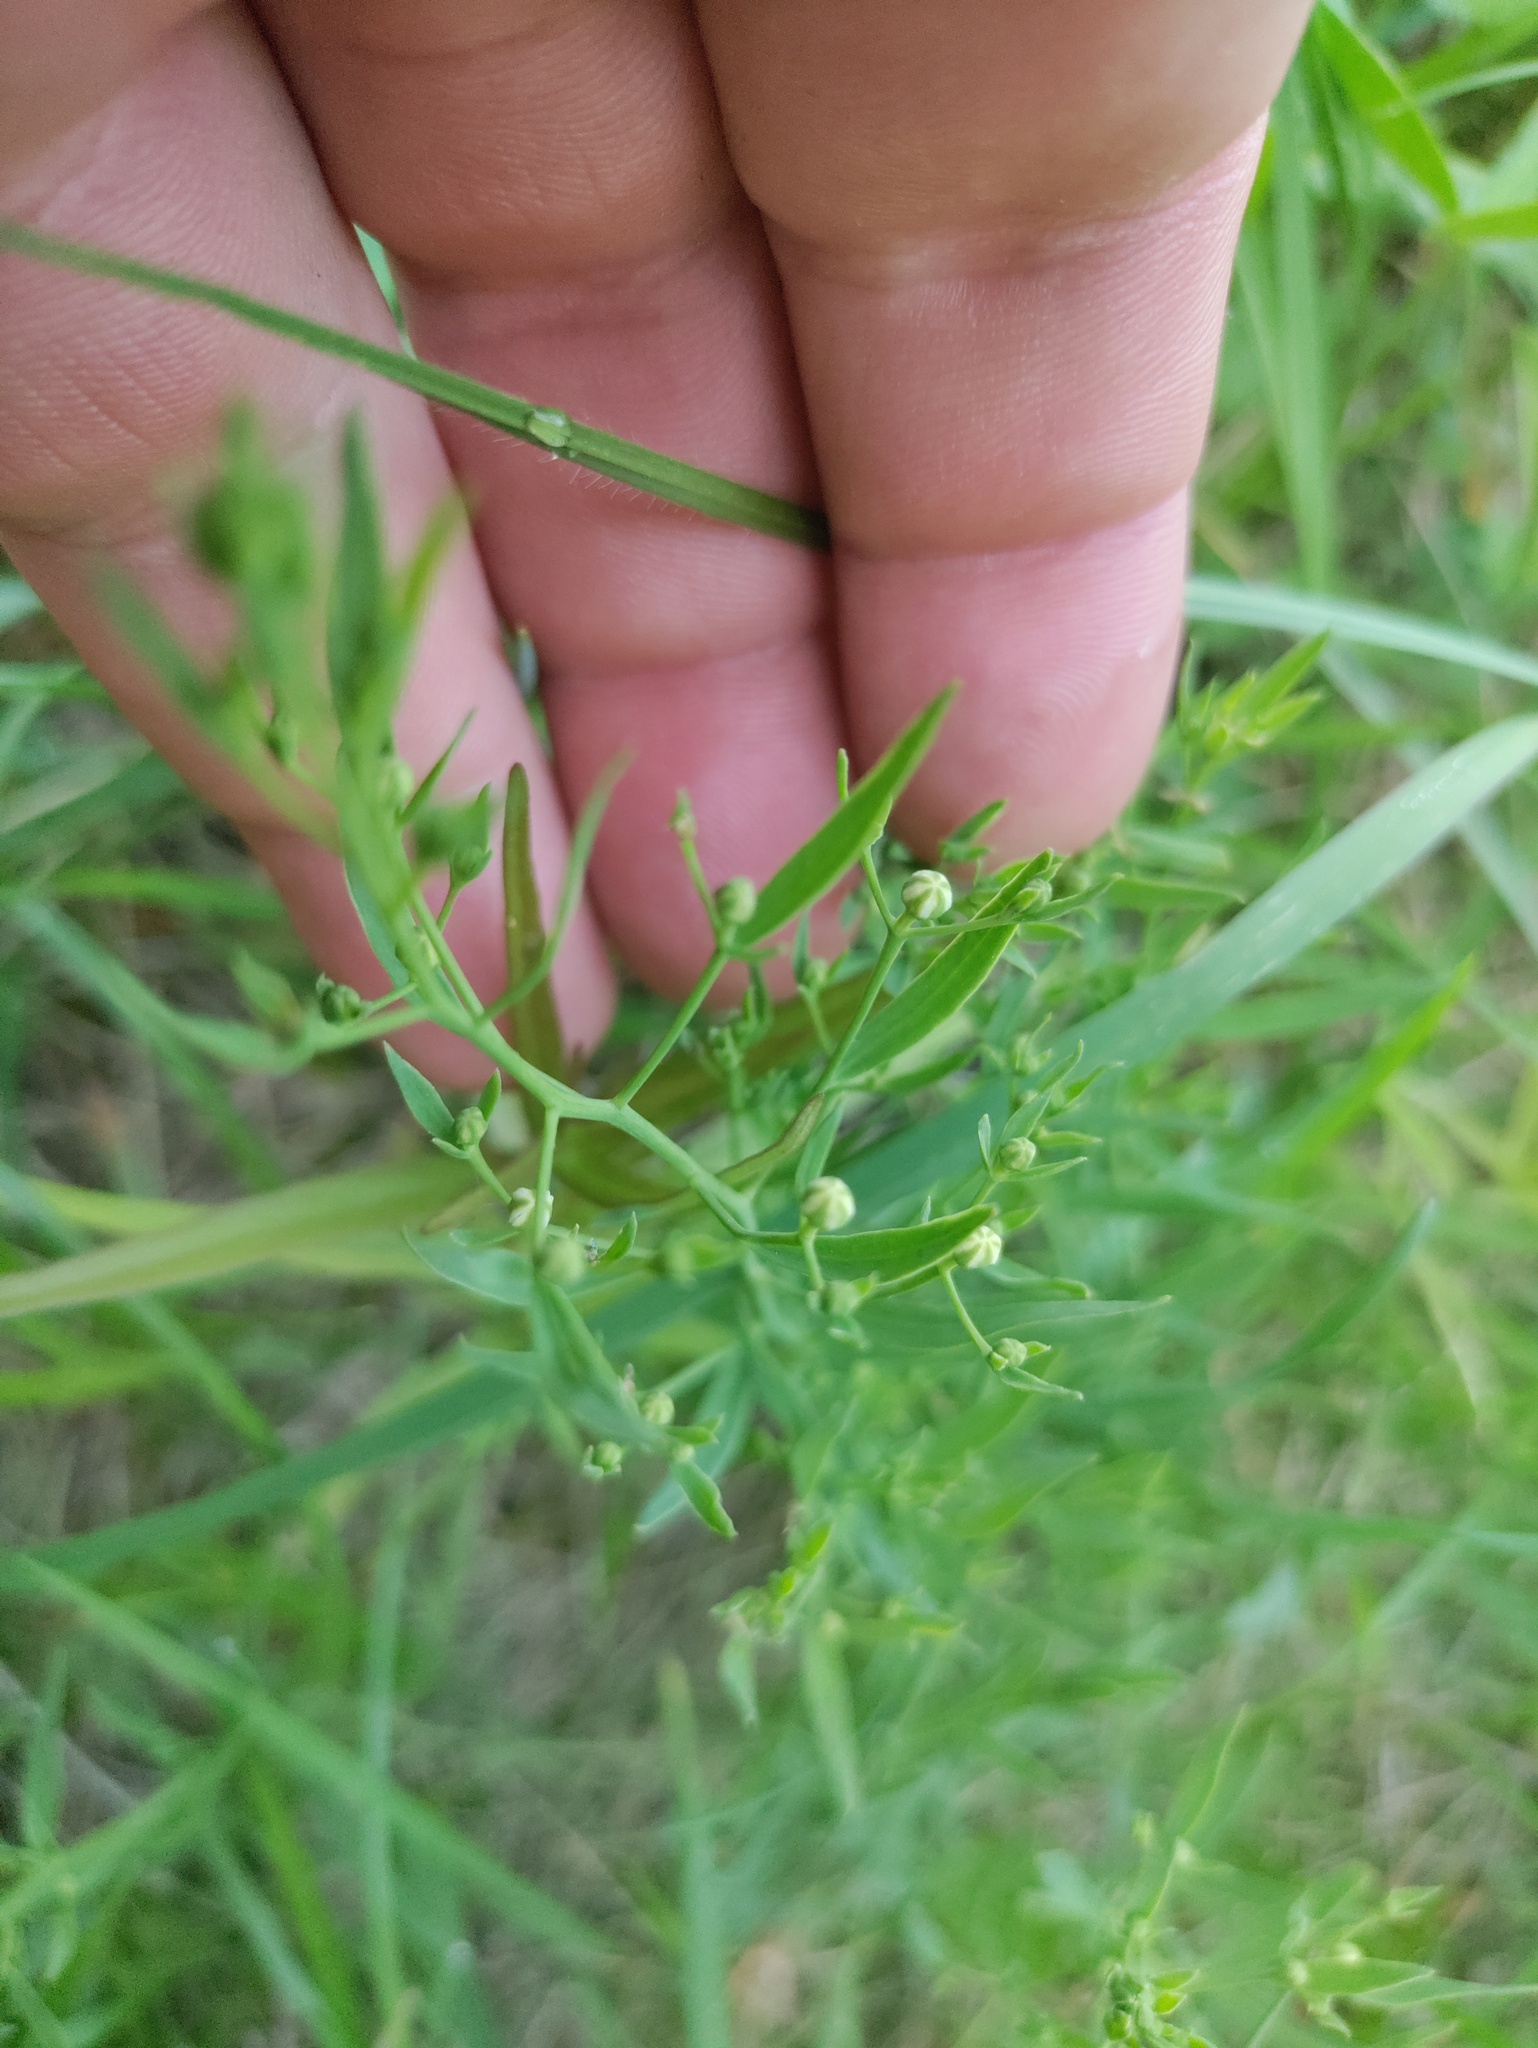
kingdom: Plantae
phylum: Tracheophyta
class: Magnoliopsida
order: Santalales
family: Thesiaceae
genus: Thesium
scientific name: Thesium linophyllon
